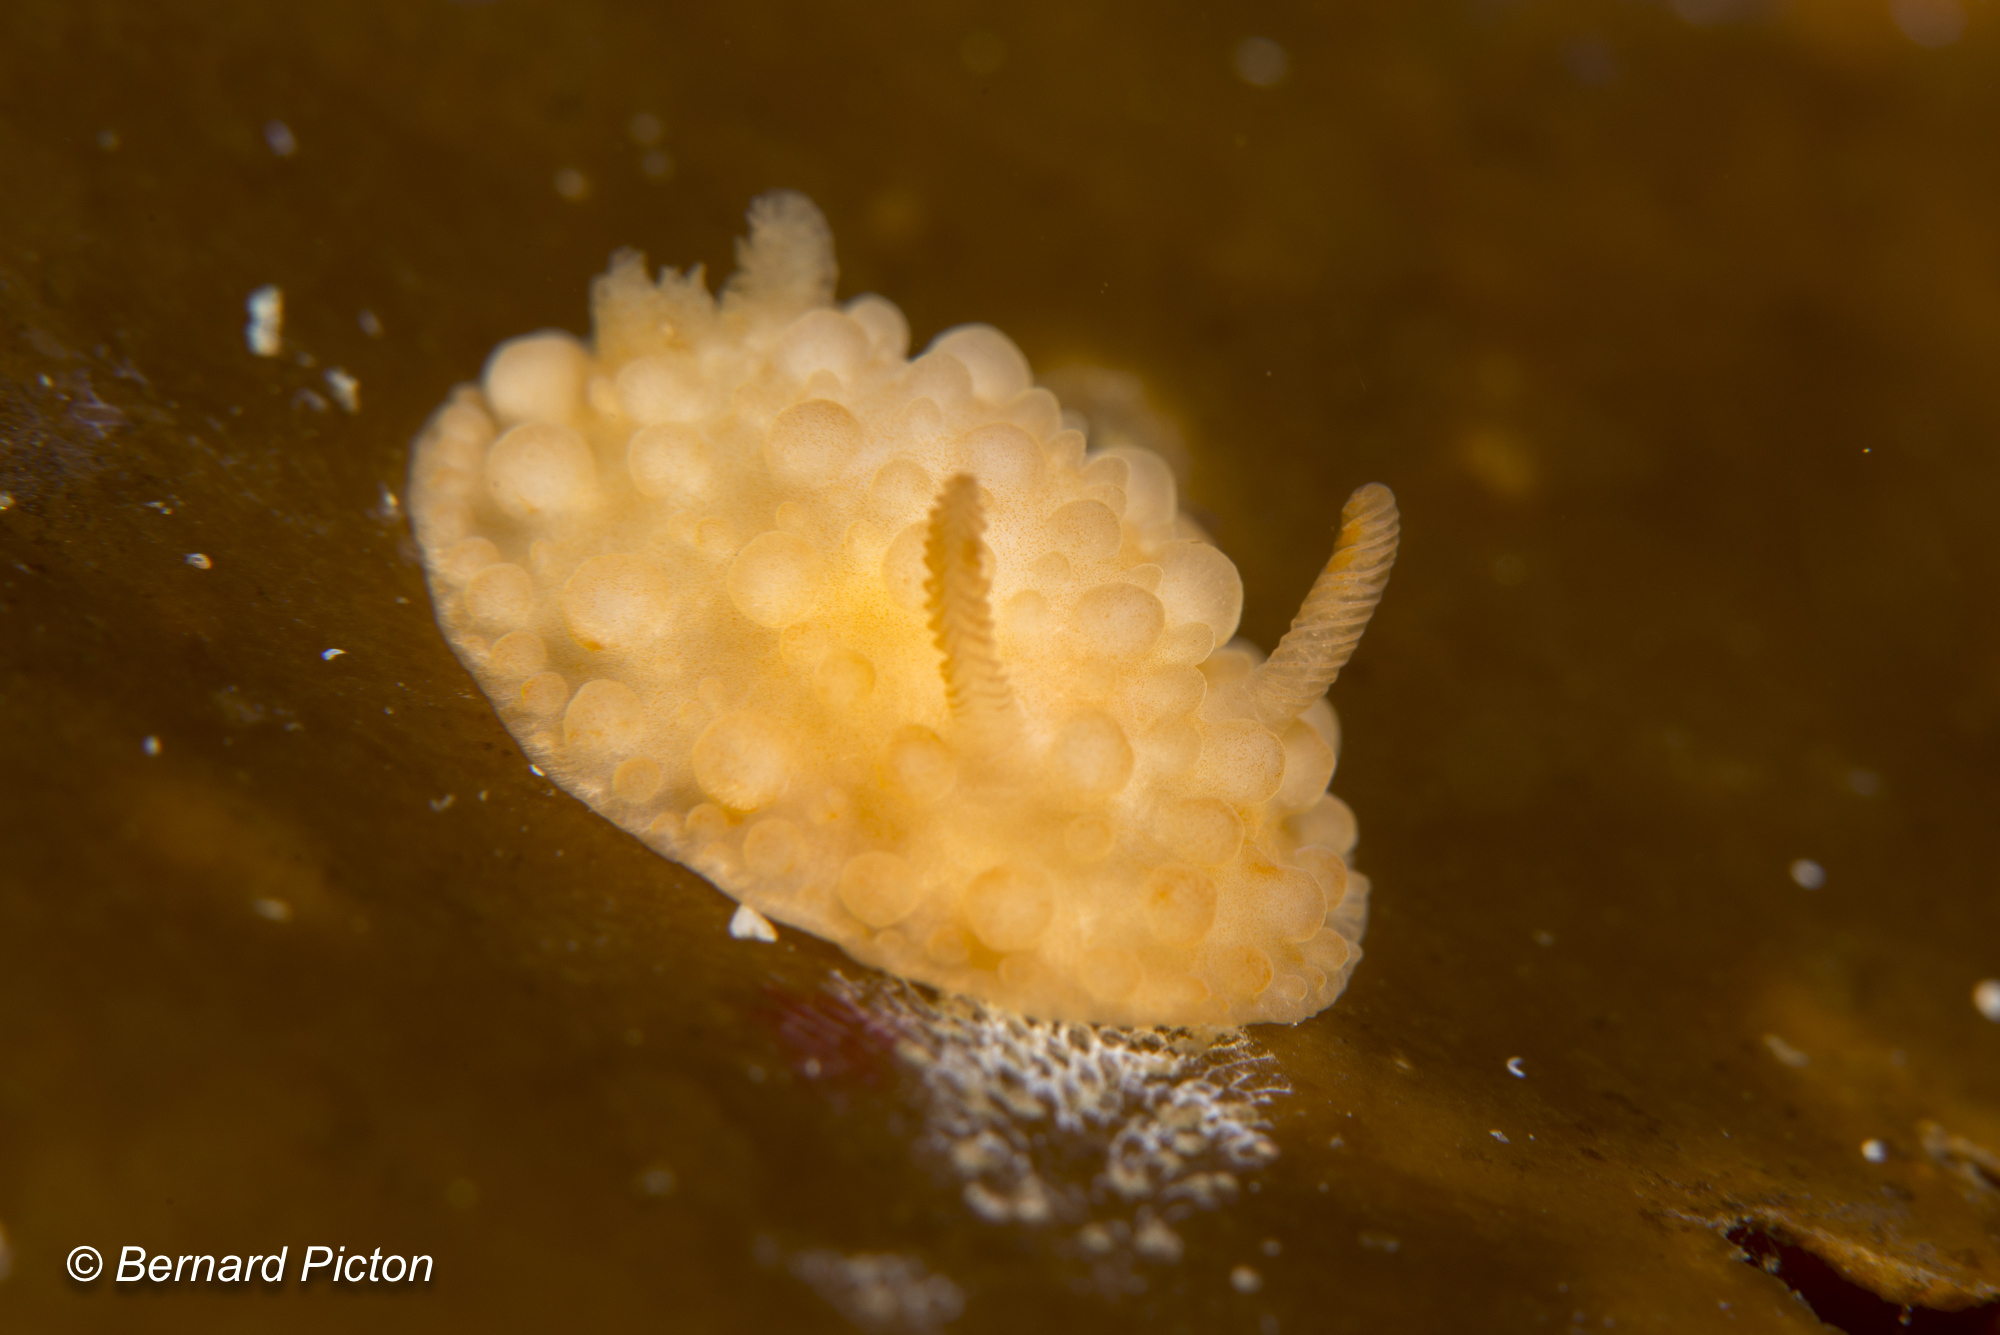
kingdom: Animalia
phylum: Mollusca
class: Gastropoda
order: Nudibranchia
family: Onchidorididae
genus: Adalaria
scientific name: Adalaria loveni
